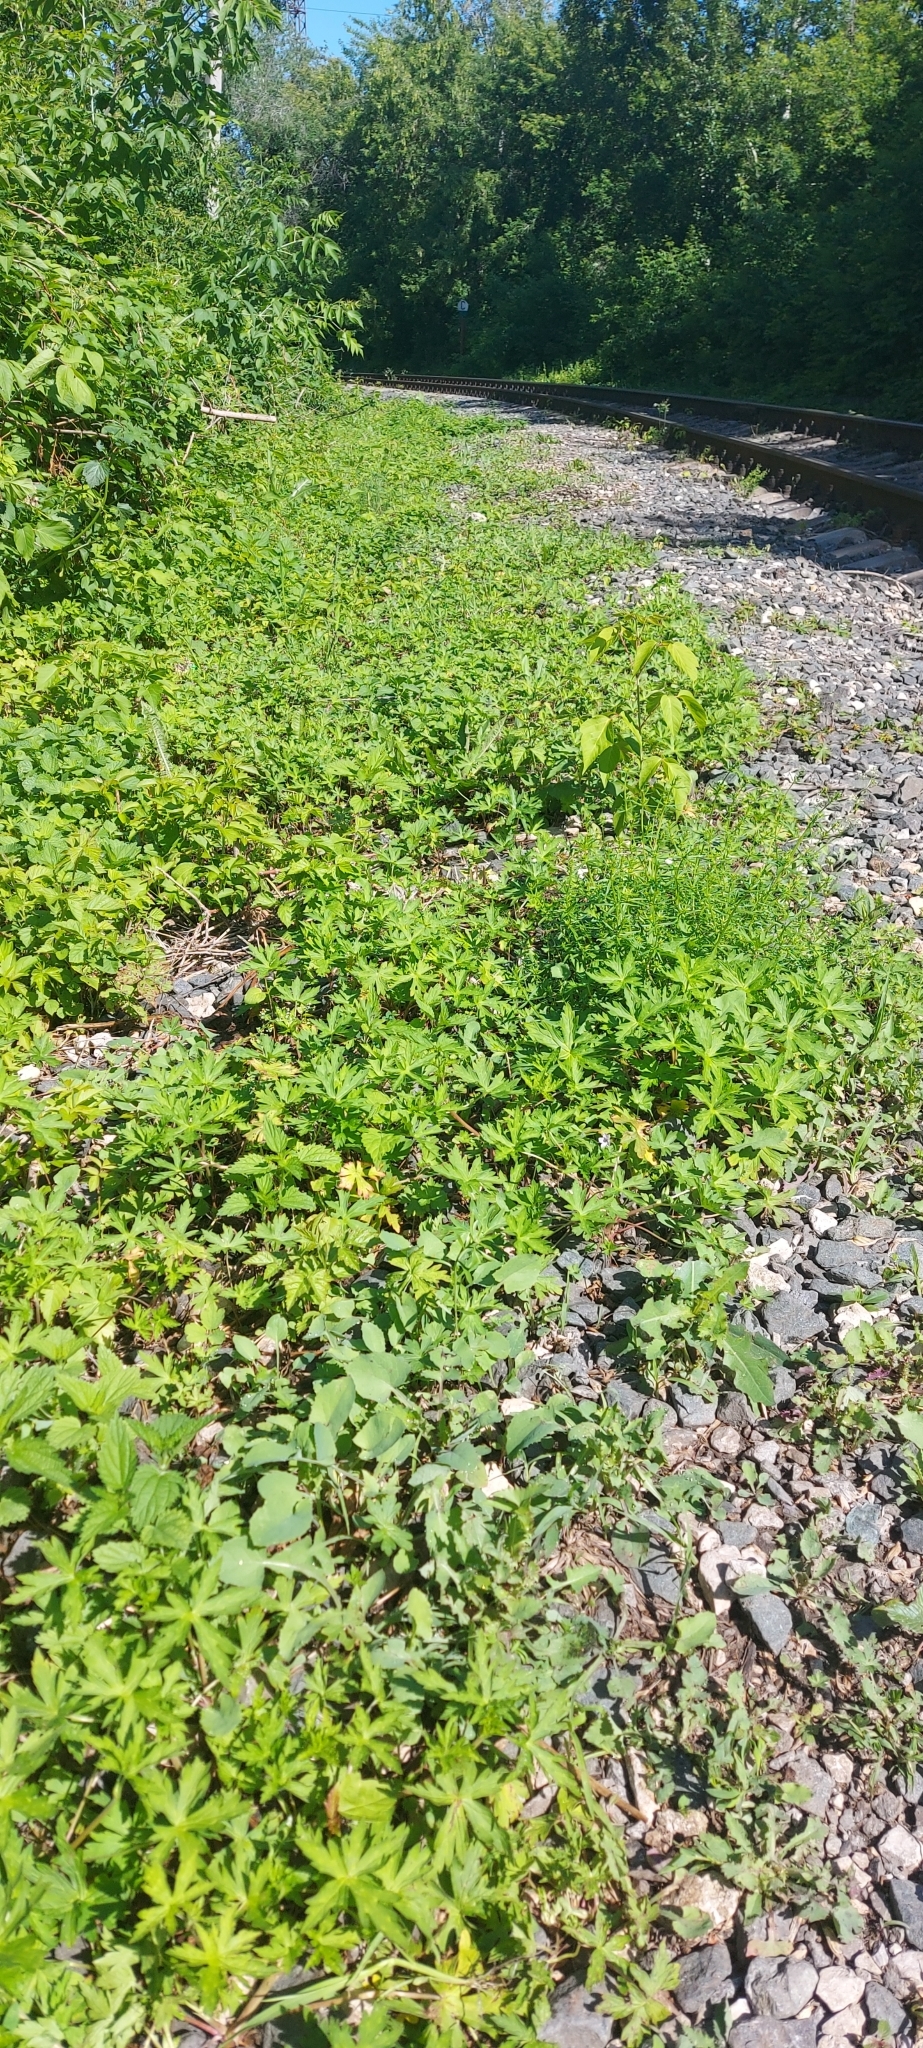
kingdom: Plantae
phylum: Tracheophyta
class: Magnoliopsida
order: Geraniales
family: Geraniaceae
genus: Geranium
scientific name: Geranium sibiricum
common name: Siberian crane's-bill
